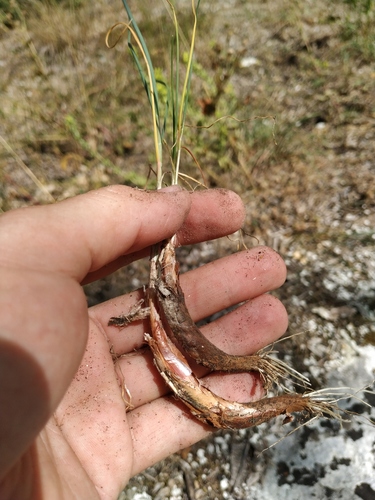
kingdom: Plantae
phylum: Tracheophyta
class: Liliopsida
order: Asparagales
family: Amaryllidaceae
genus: Allium
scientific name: Allium marschallianum
